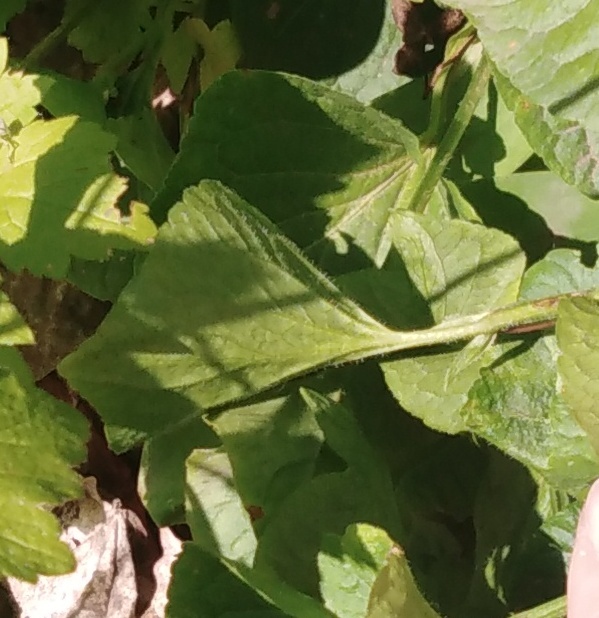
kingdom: Plantae
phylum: Tracheophyta
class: Magnoliopsida
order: Malpighiales
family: Violaceae
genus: Viola
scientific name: Viola mirabilis
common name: Wonder violet
